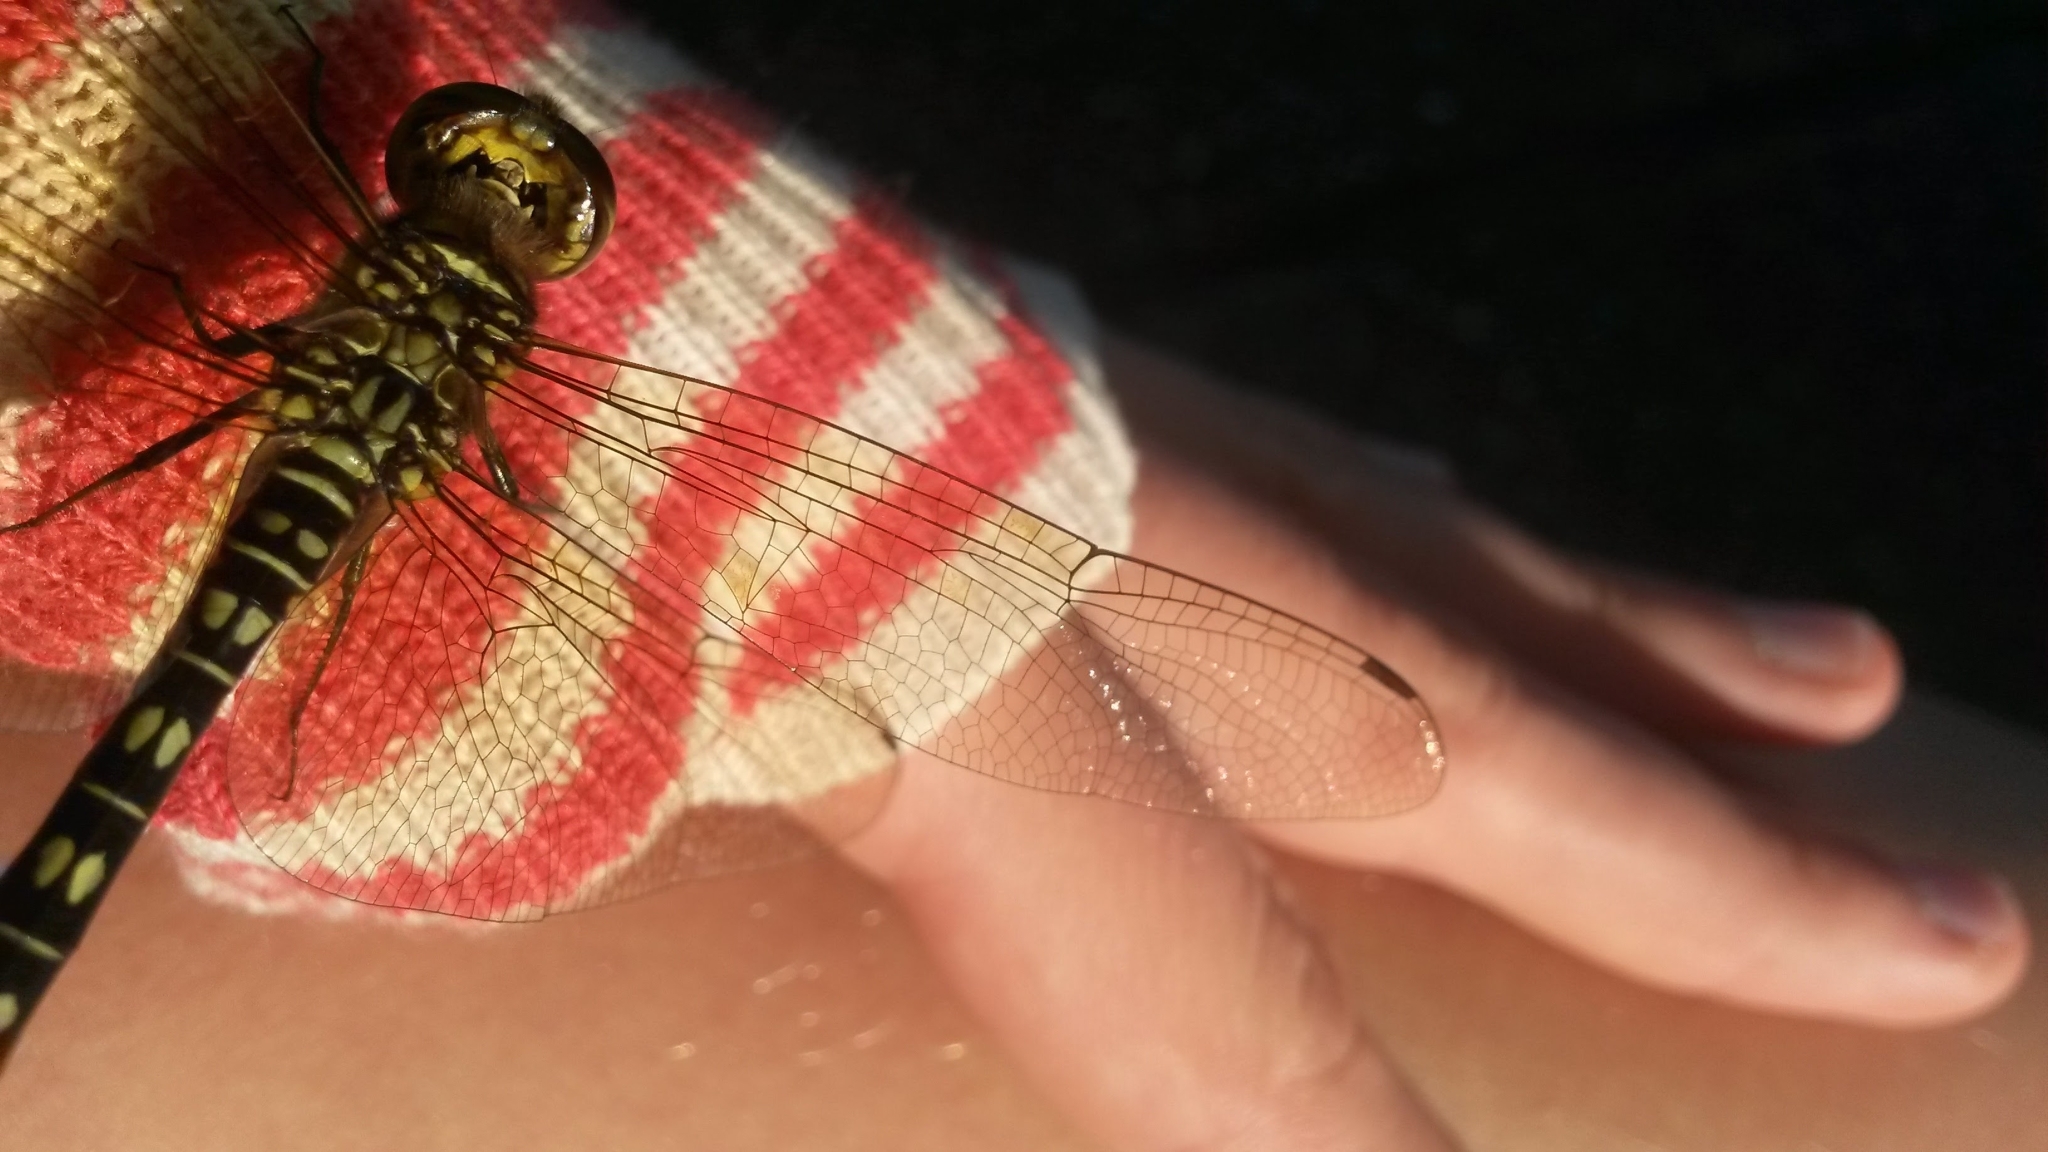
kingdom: Animalia
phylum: Arthropoda
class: Insecta
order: Odonata
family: Libellulidae
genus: Hydrobasileus
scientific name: Hydrobasileus brevistylus
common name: Water prince
